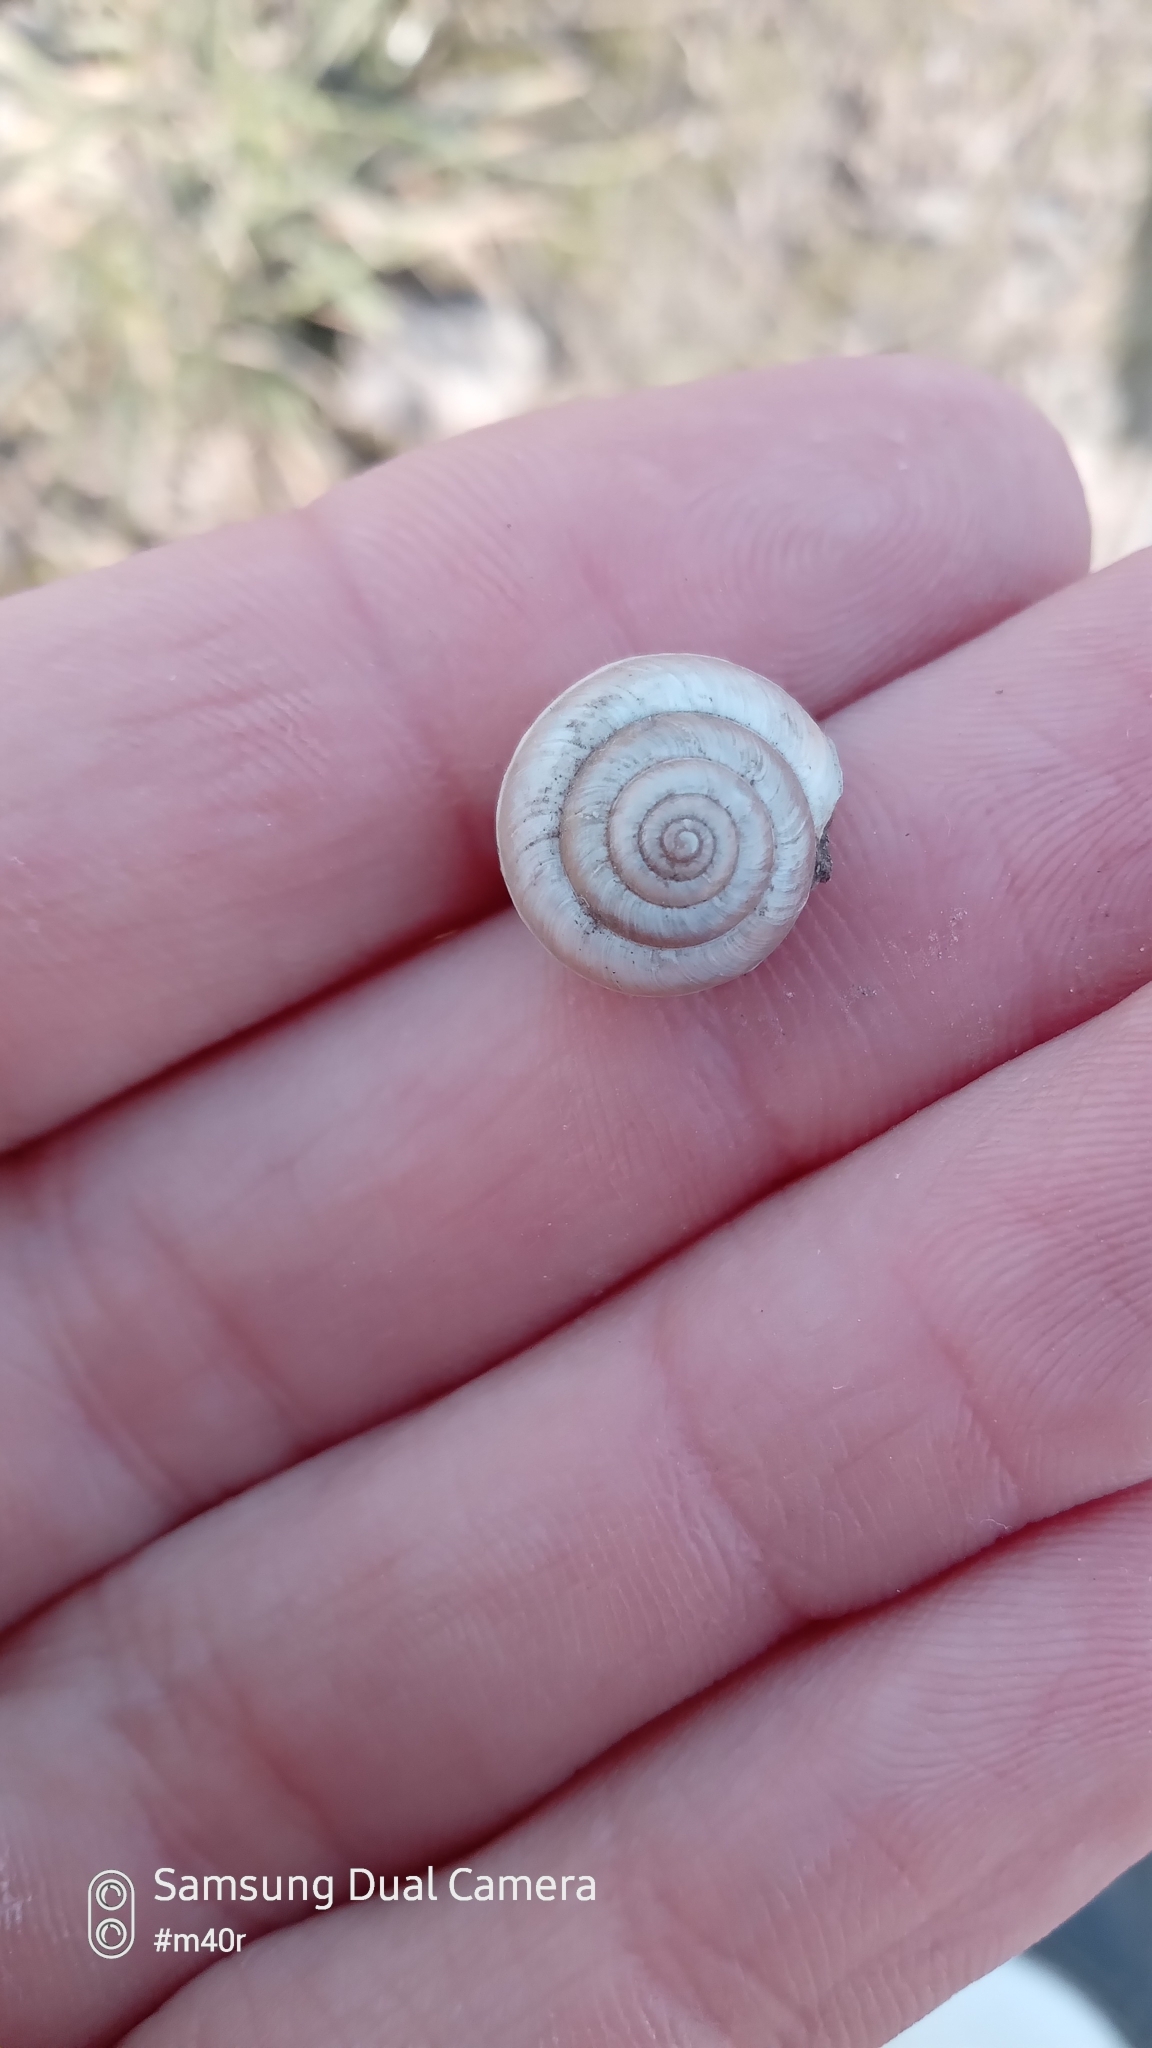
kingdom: Animalia
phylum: Mollusca
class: Gastropoda
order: Stylommatophora
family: Hygromiidae
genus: Harmozica
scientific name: Harmozica ravergiensis
